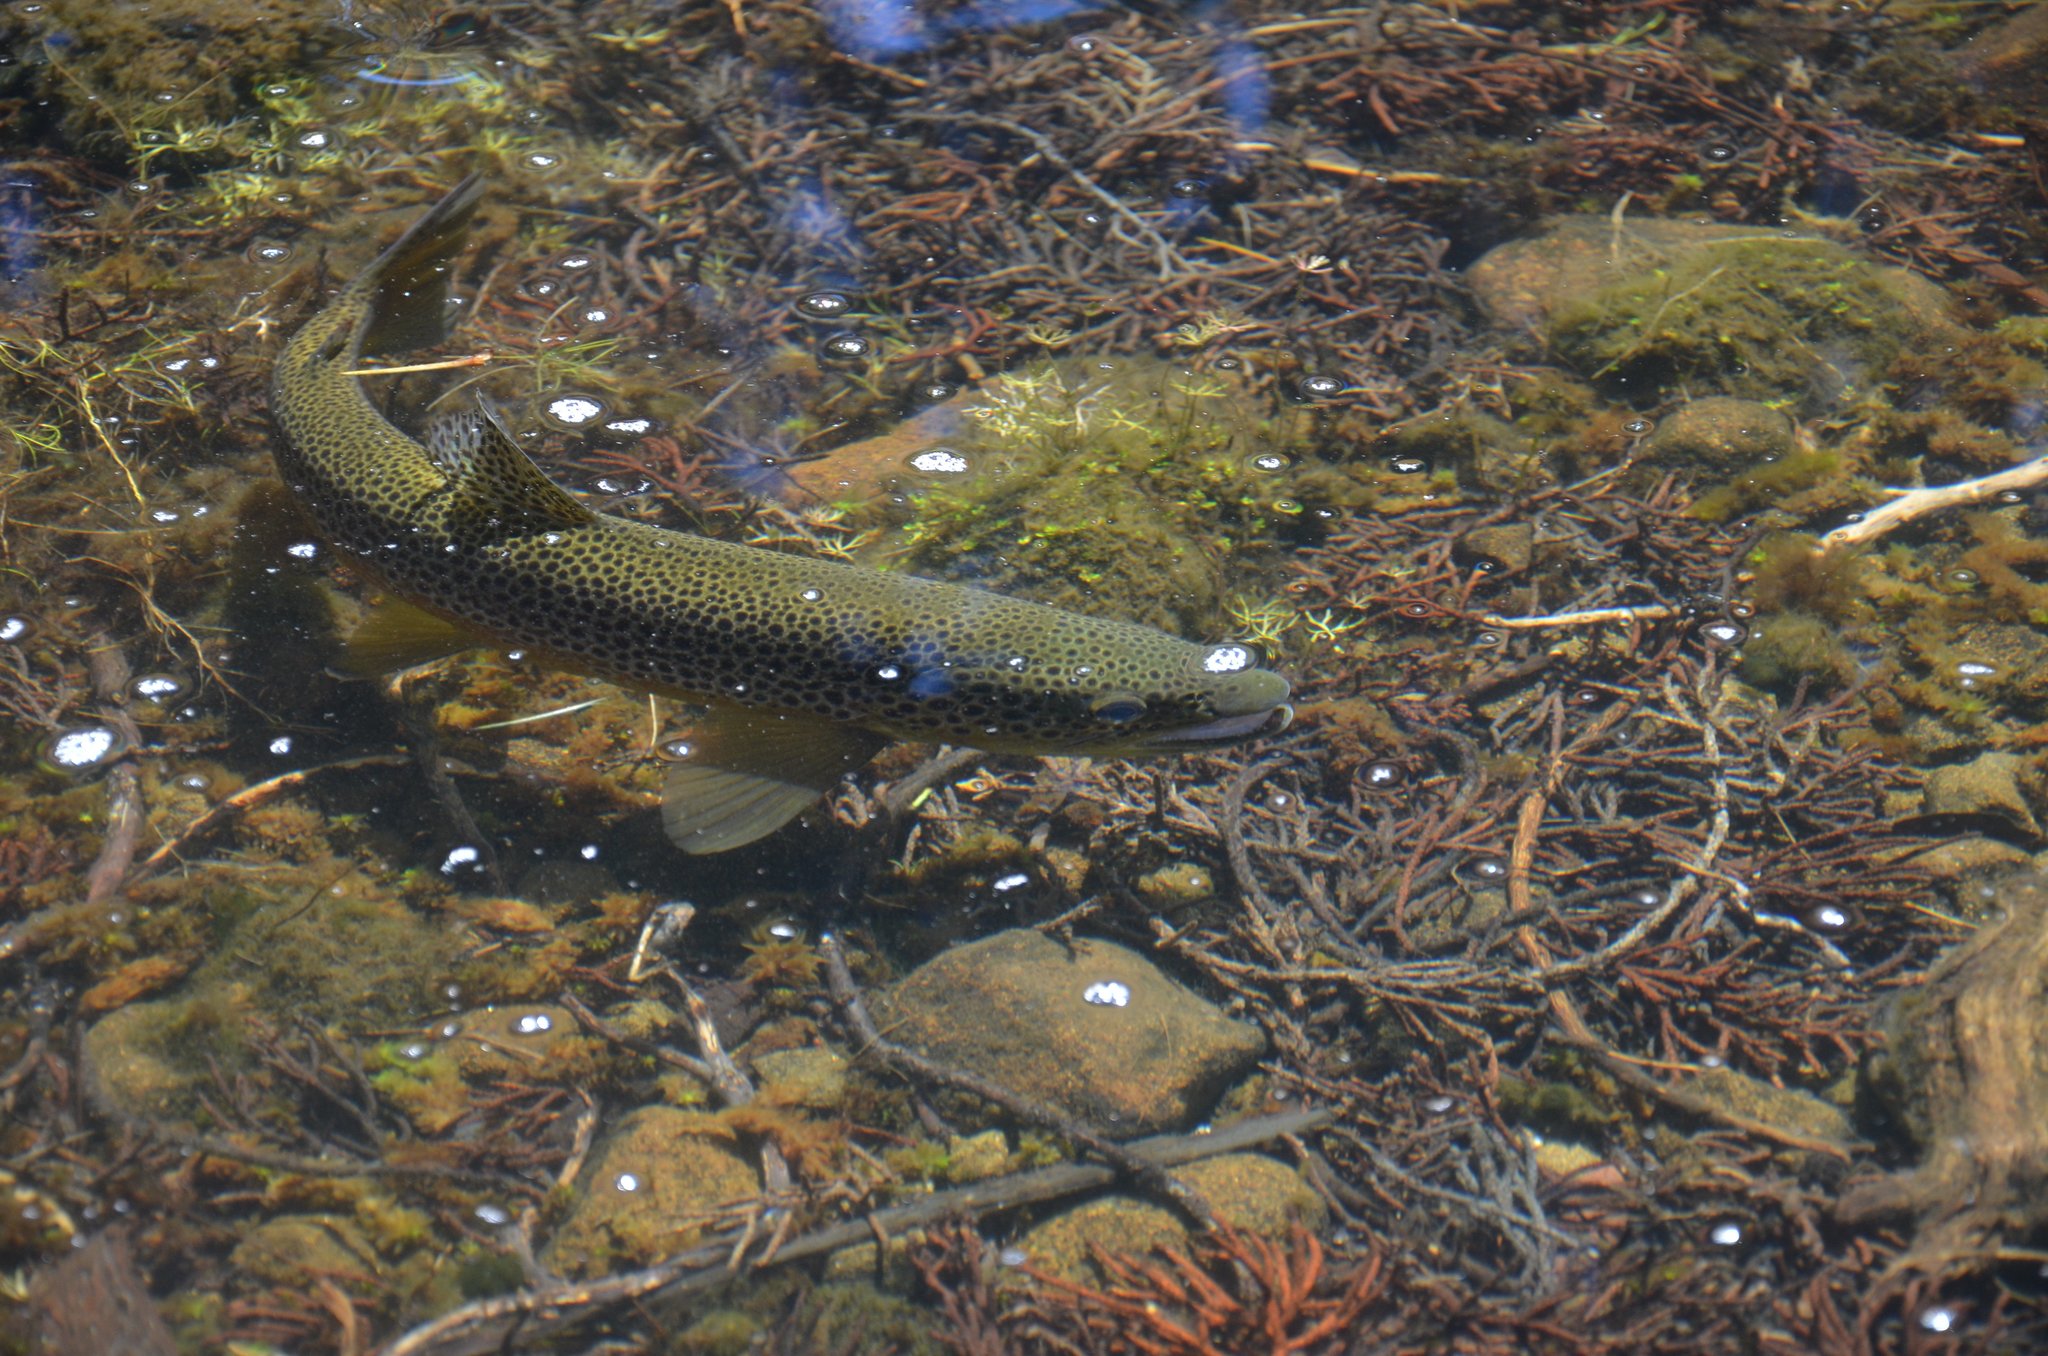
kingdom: Animalia
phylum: Chordata
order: Salmoniformes
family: Salmonidae
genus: Salmo
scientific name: Salmo trutta
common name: Brown trout
